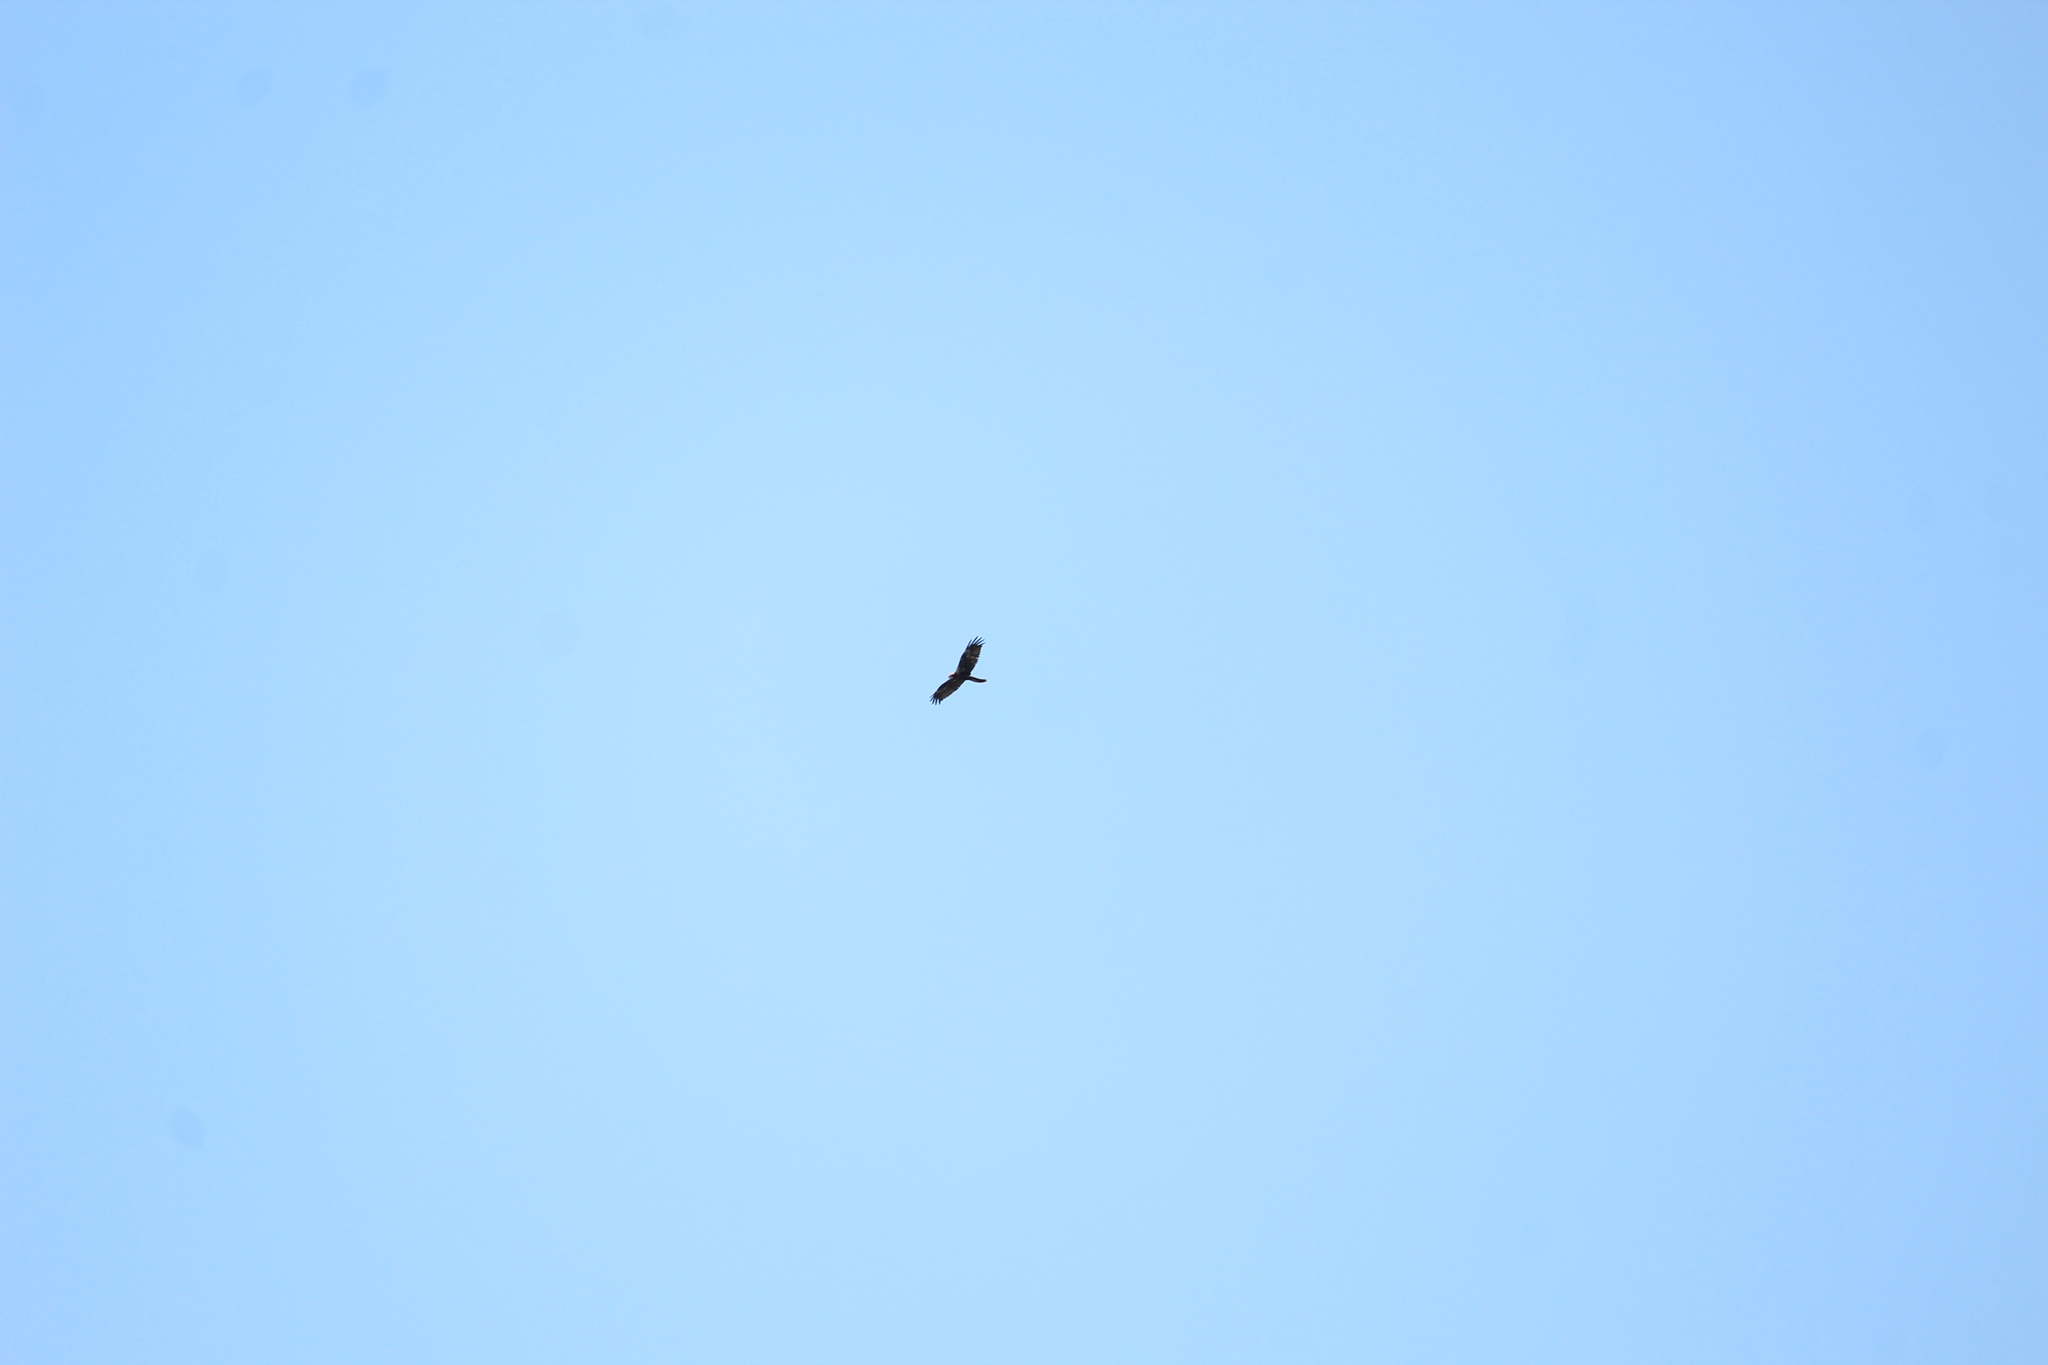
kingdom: Animalia
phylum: Chordata
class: Aves
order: Accipitriformes
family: Accipitridae
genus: Circus
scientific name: Circus aeruginosus
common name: Western marsh harrier
